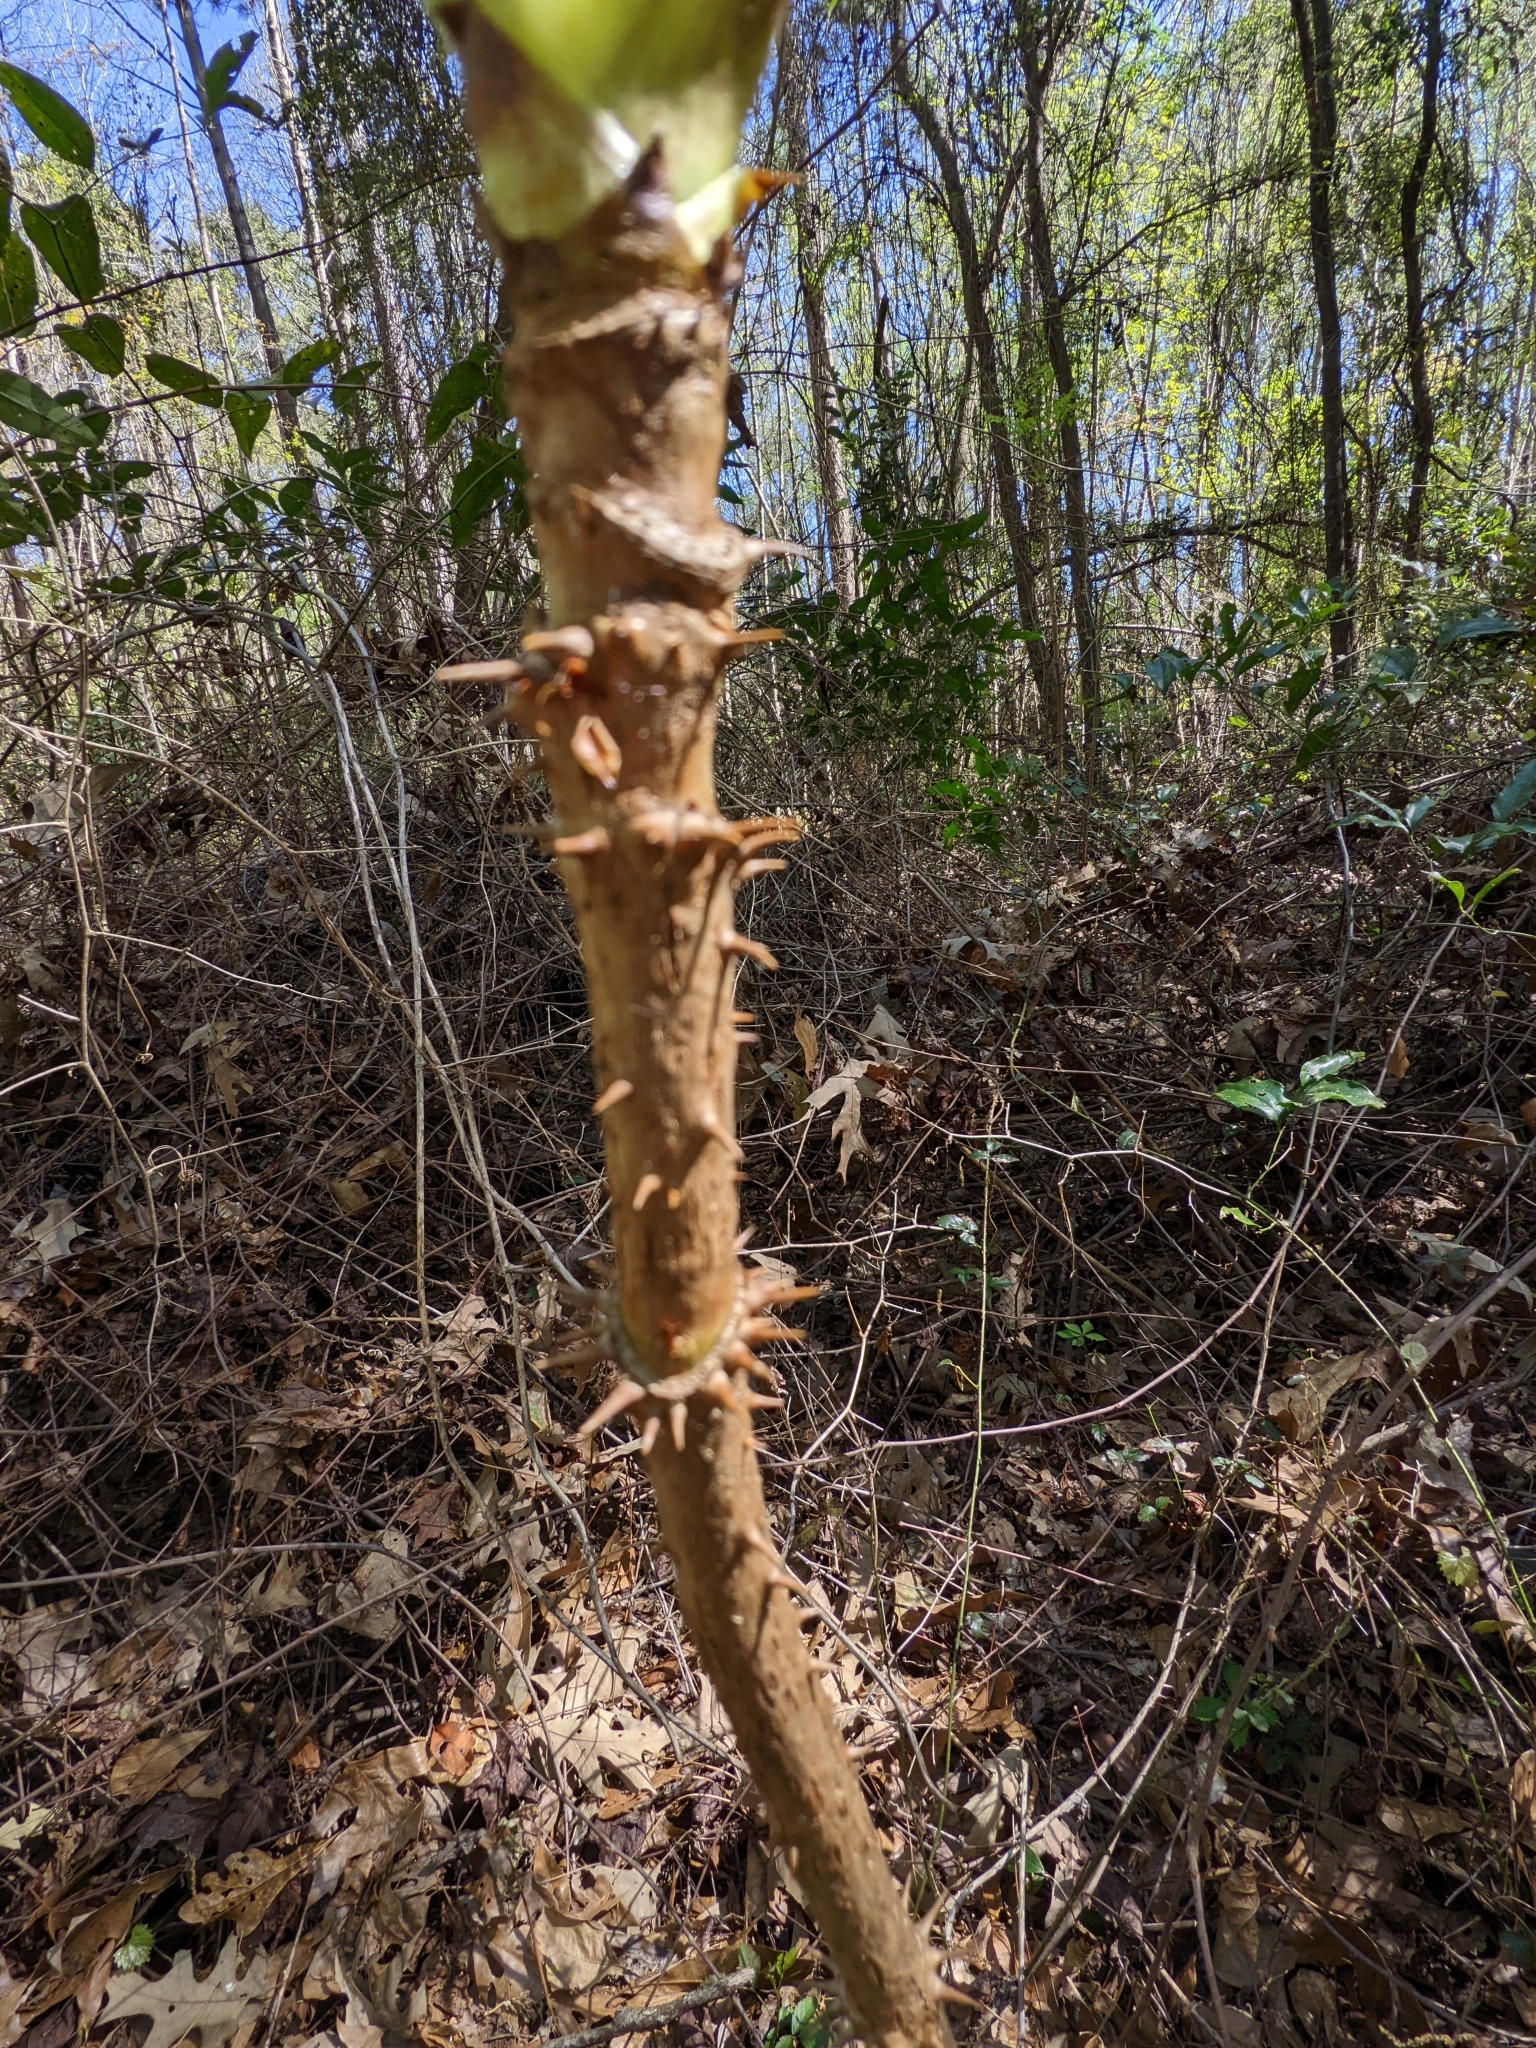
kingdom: Plantae
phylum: Tracheophyta
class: Magnoliopsida
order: Apiales
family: Araliaceae
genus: Aralia
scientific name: Aralia spinosa
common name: Hercules'-club
